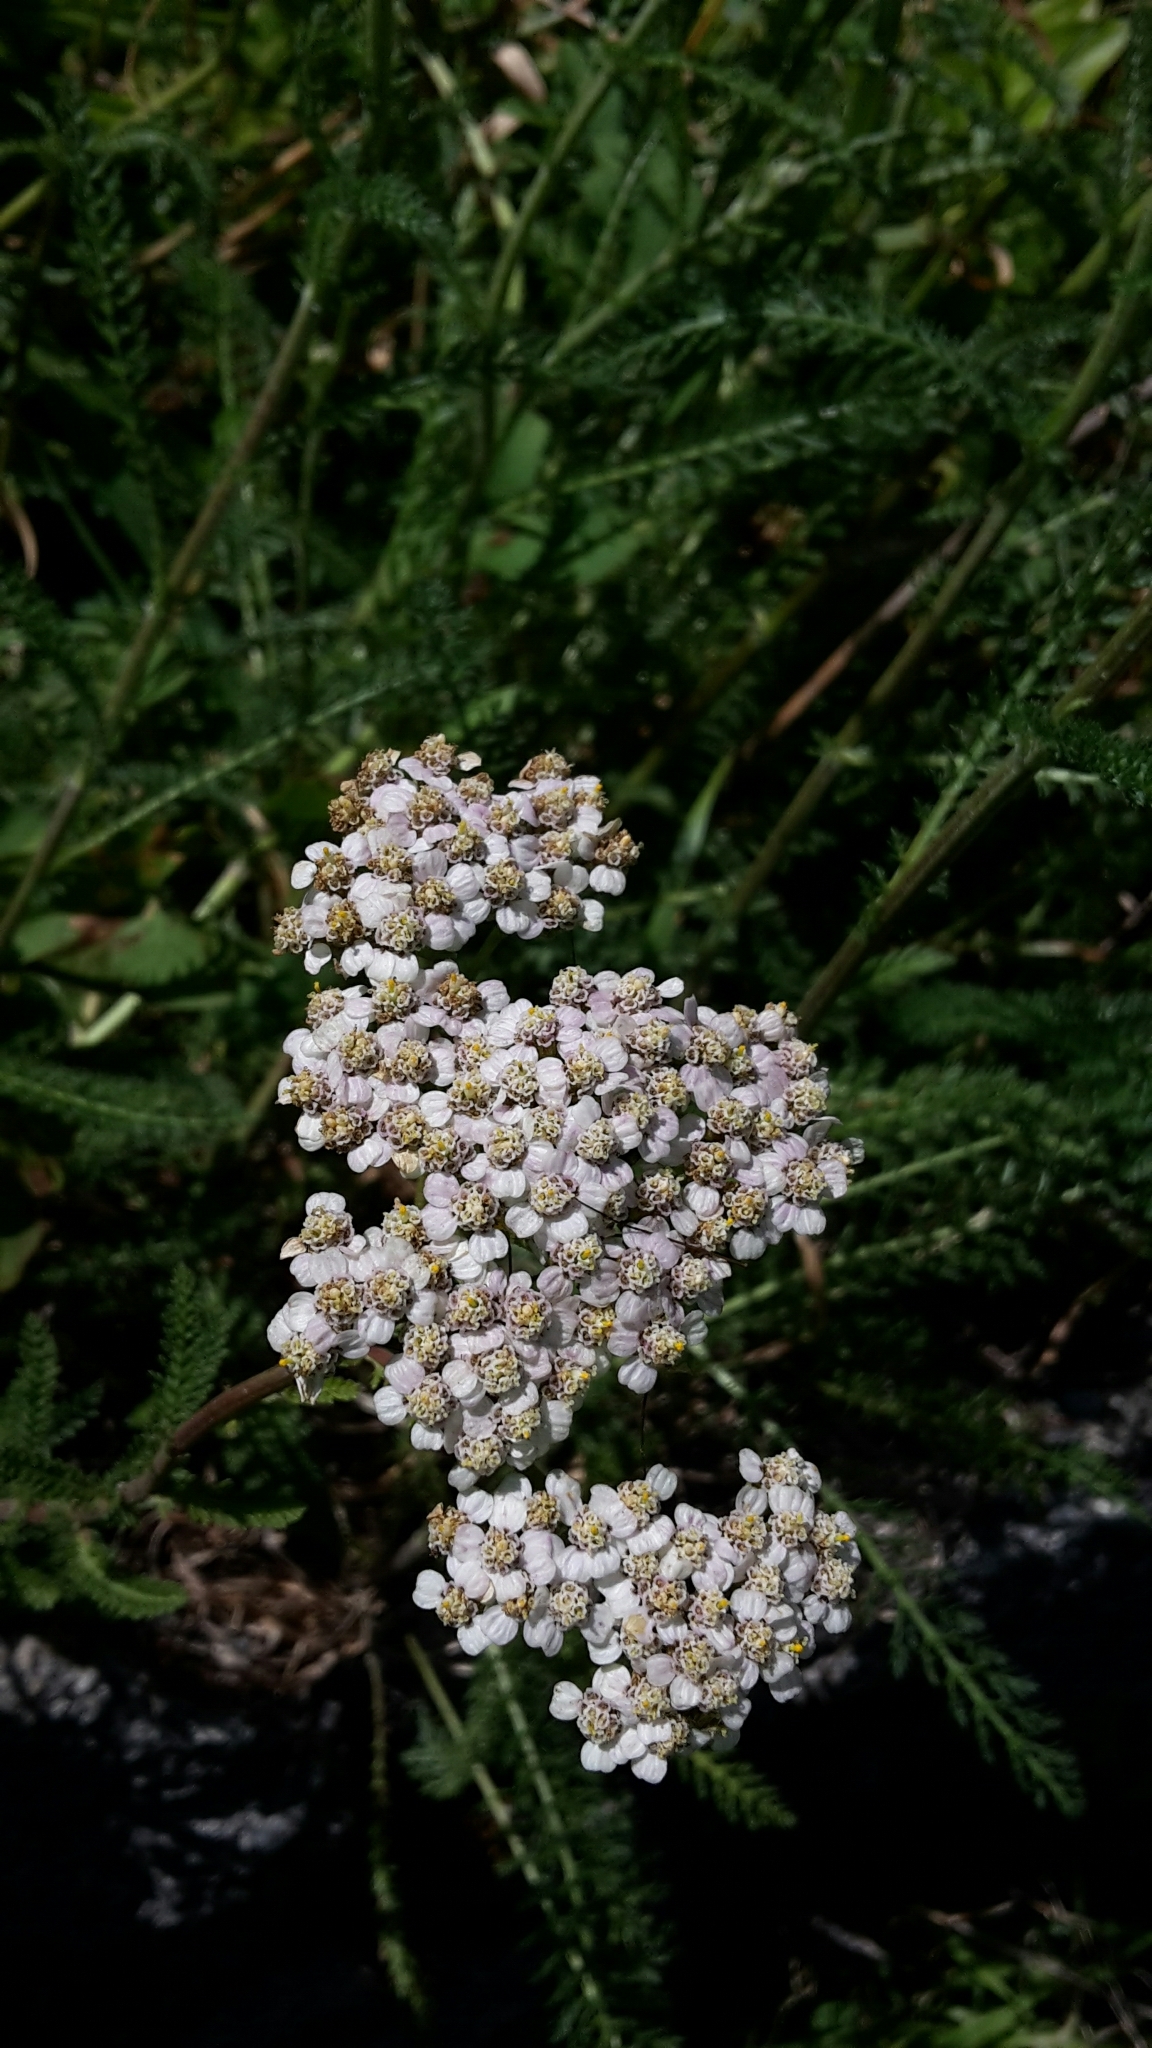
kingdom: Plantae
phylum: Tracheophyta
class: Magnoliopsida
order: Asterales
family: Asteraceae
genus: Achillea
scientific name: Achillea millefolium
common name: Yarrow
